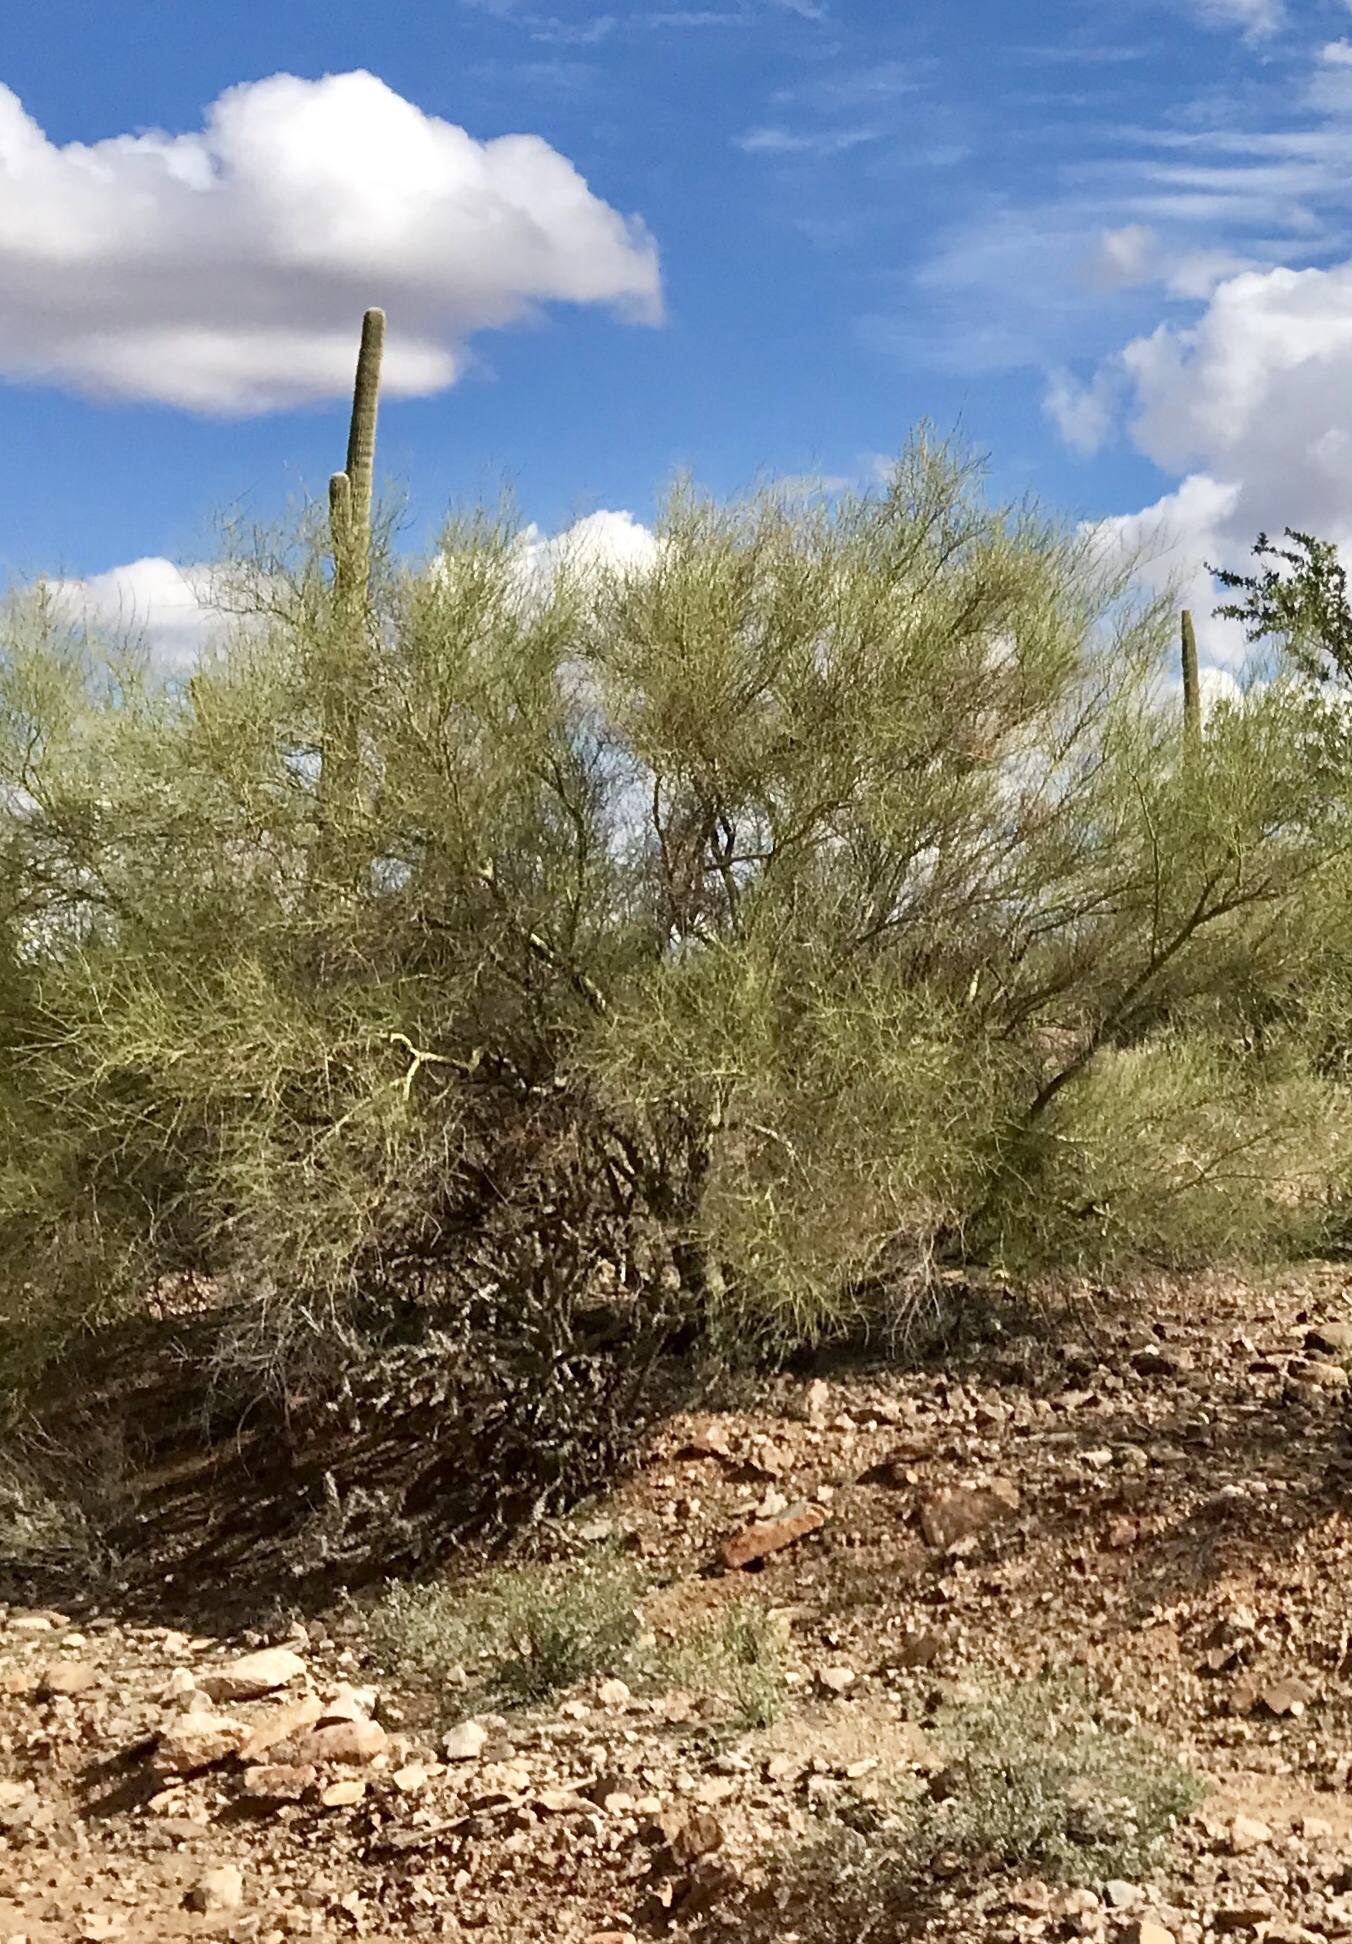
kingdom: Plantae
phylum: Tracheophyta
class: Magnoliopsida
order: Fabales
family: Fabaceae
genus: Parkinsonia
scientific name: Parkinsonia microphylla
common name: Yellow paloverde
